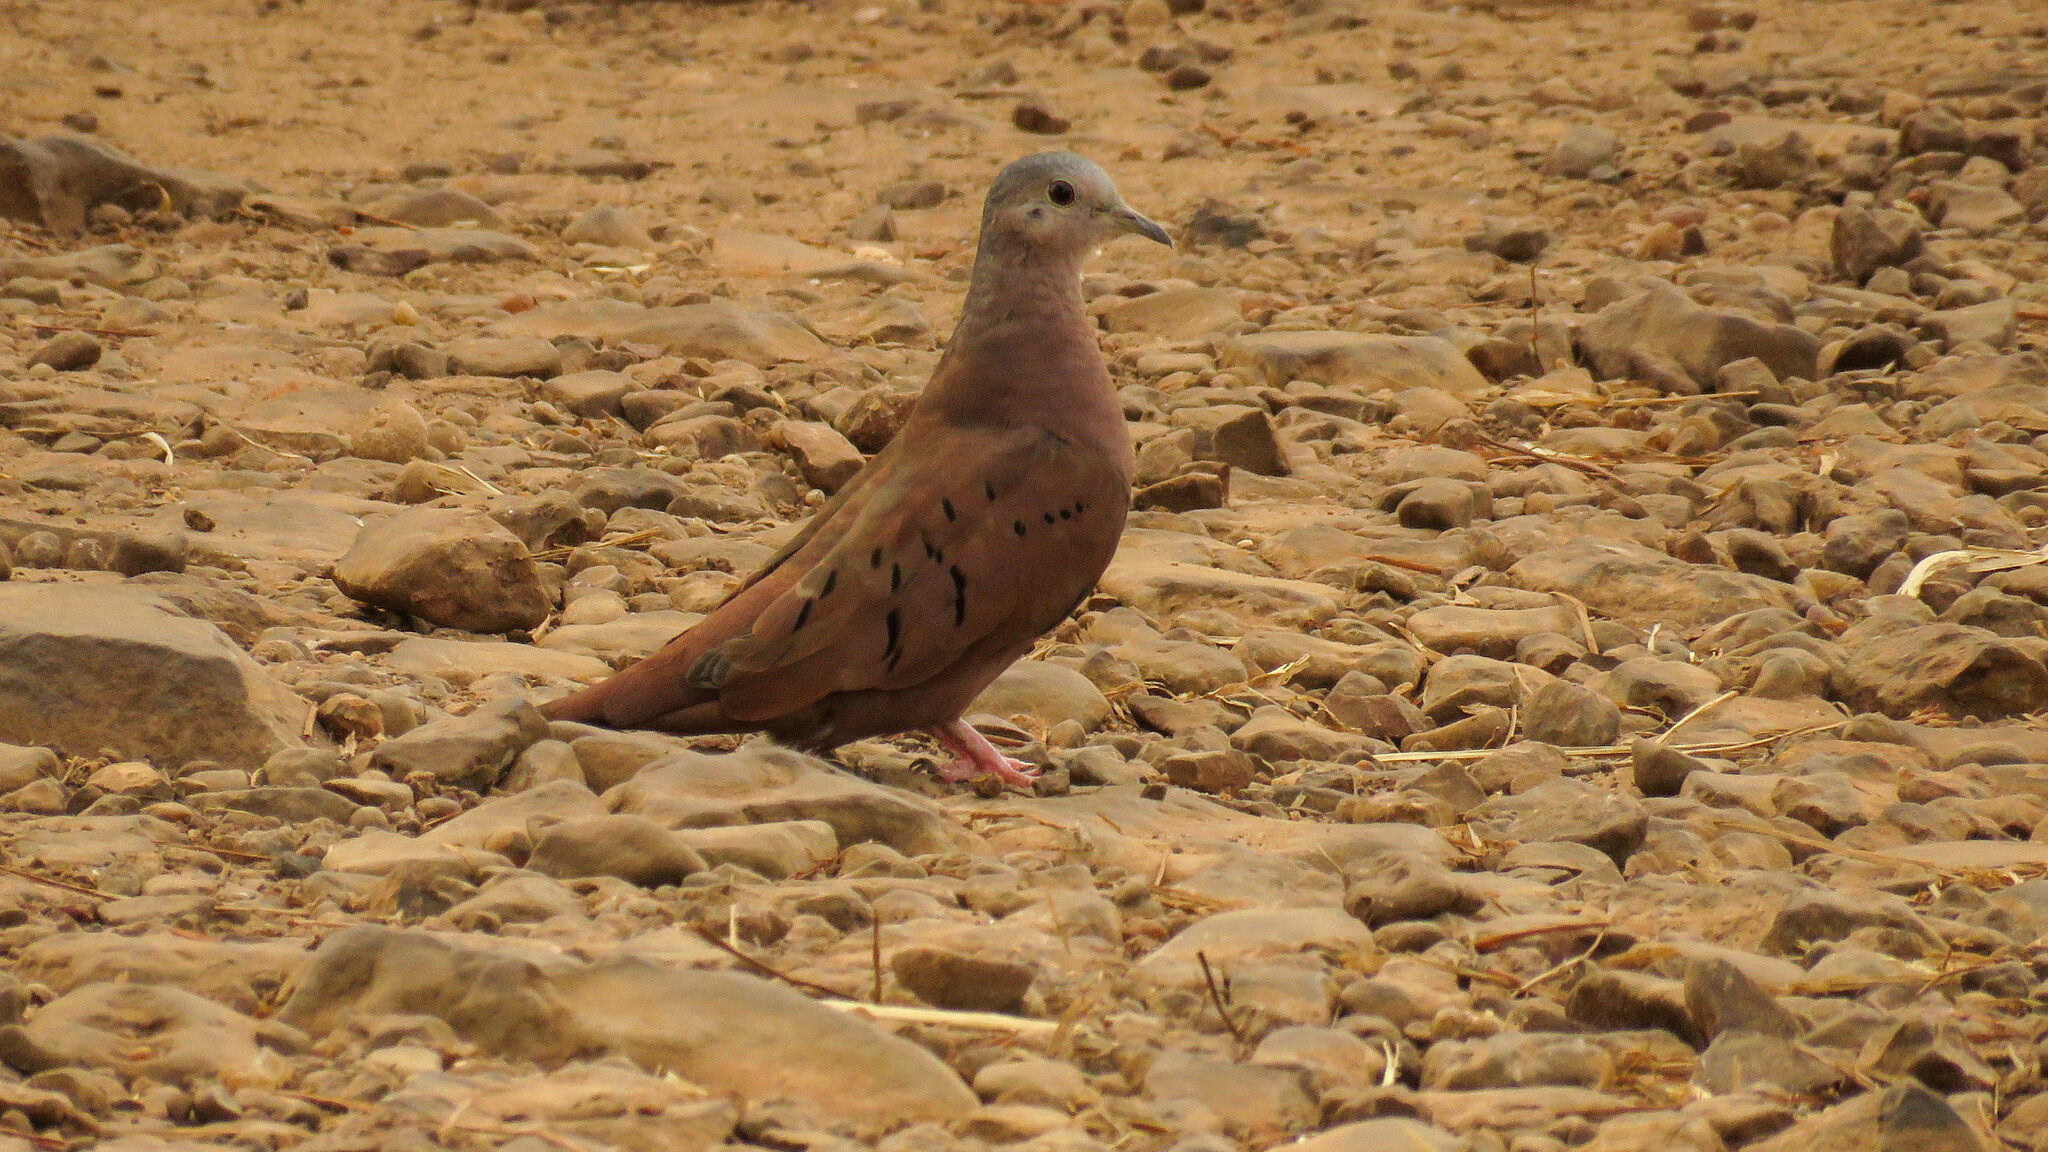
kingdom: Animalia
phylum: Chordata
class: Aves
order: Columbiformes
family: Columbidae
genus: Columbina
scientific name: Columbina talpacoti
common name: Ruddy ground dove
